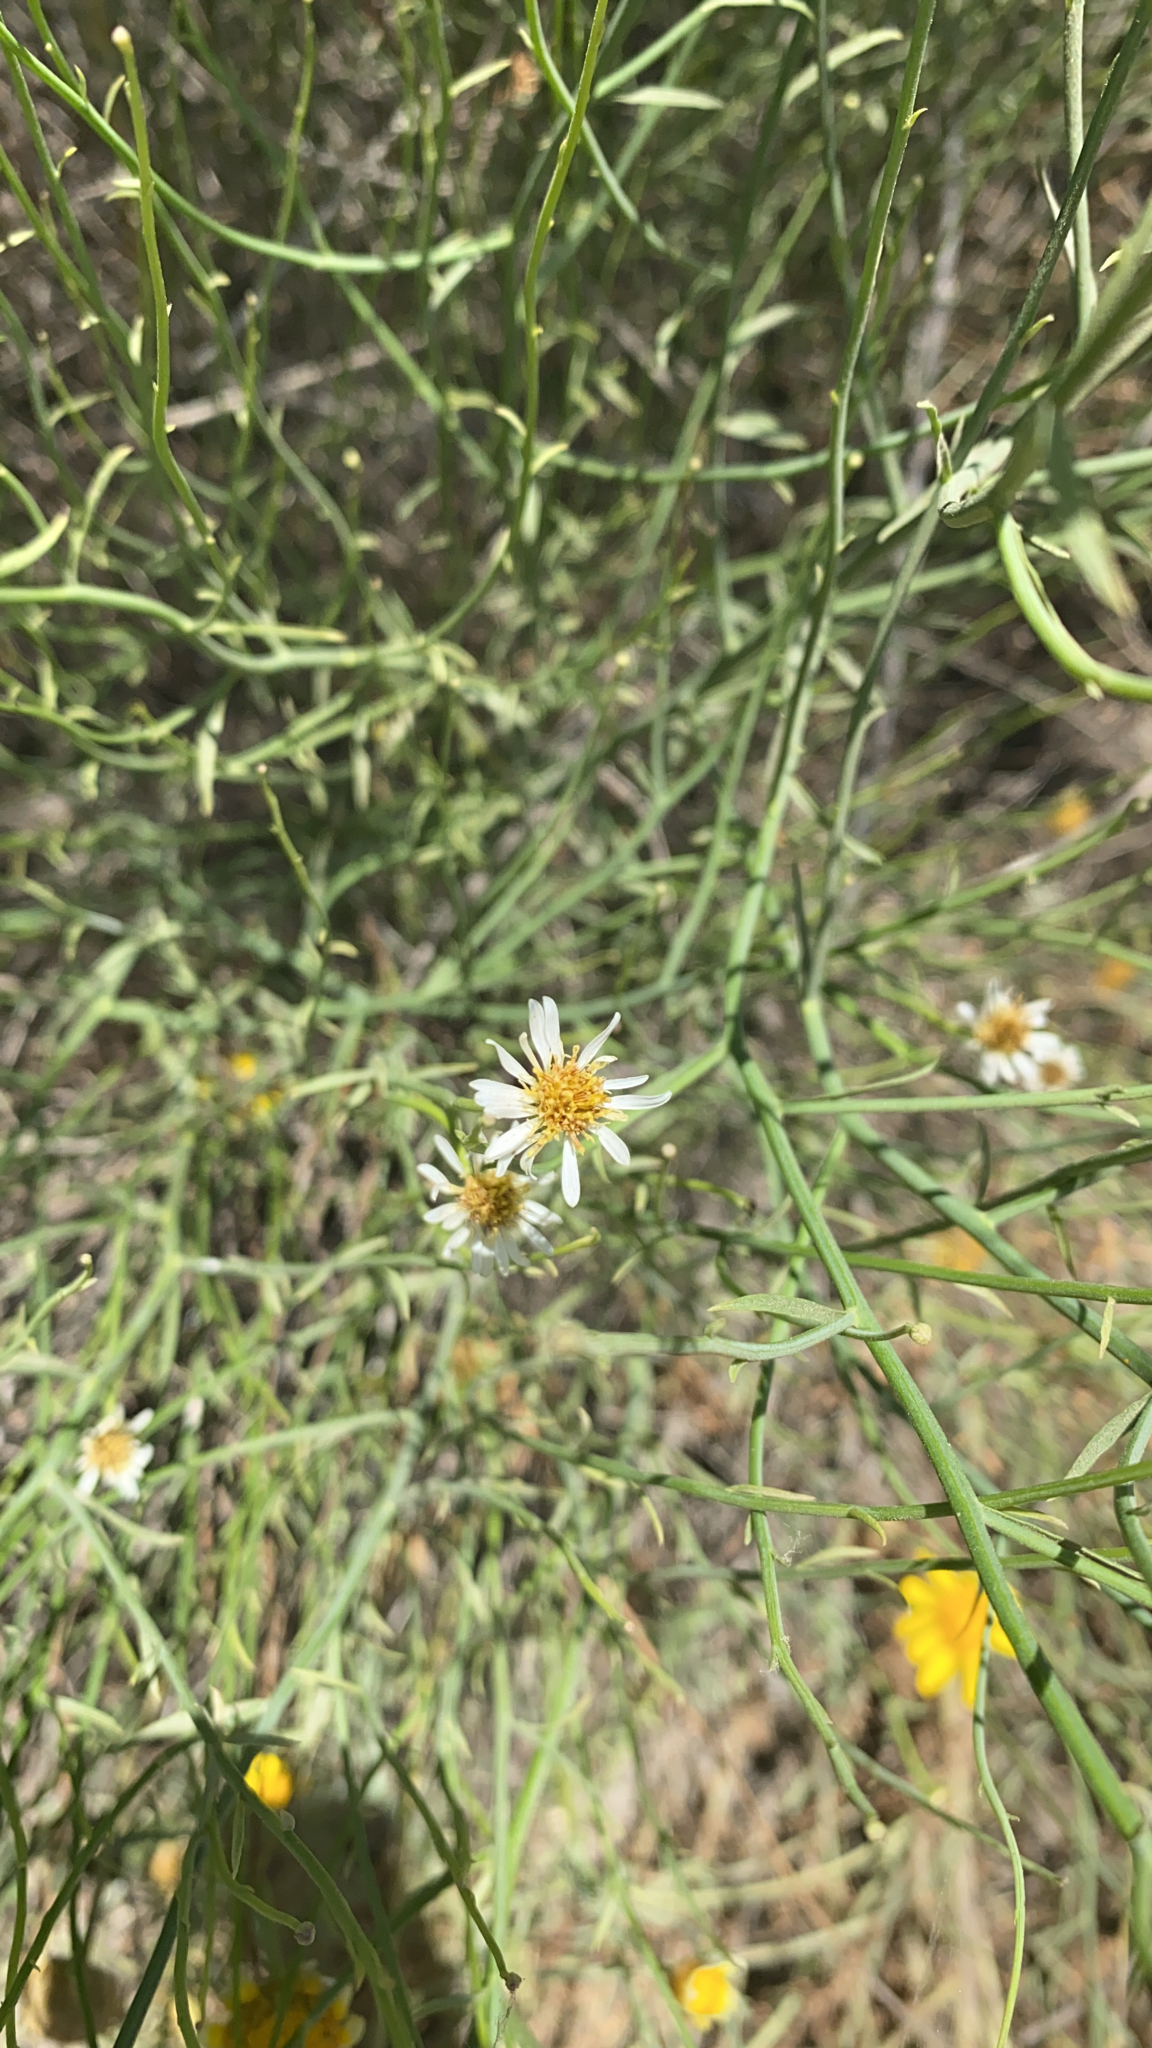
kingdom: Plantae
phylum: Tracheophyta
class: Magnoliopsida
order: Asterales
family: Asteraceae
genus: Chloracantha
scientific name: Chloracantha spinosa
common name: Mexican devilweed
